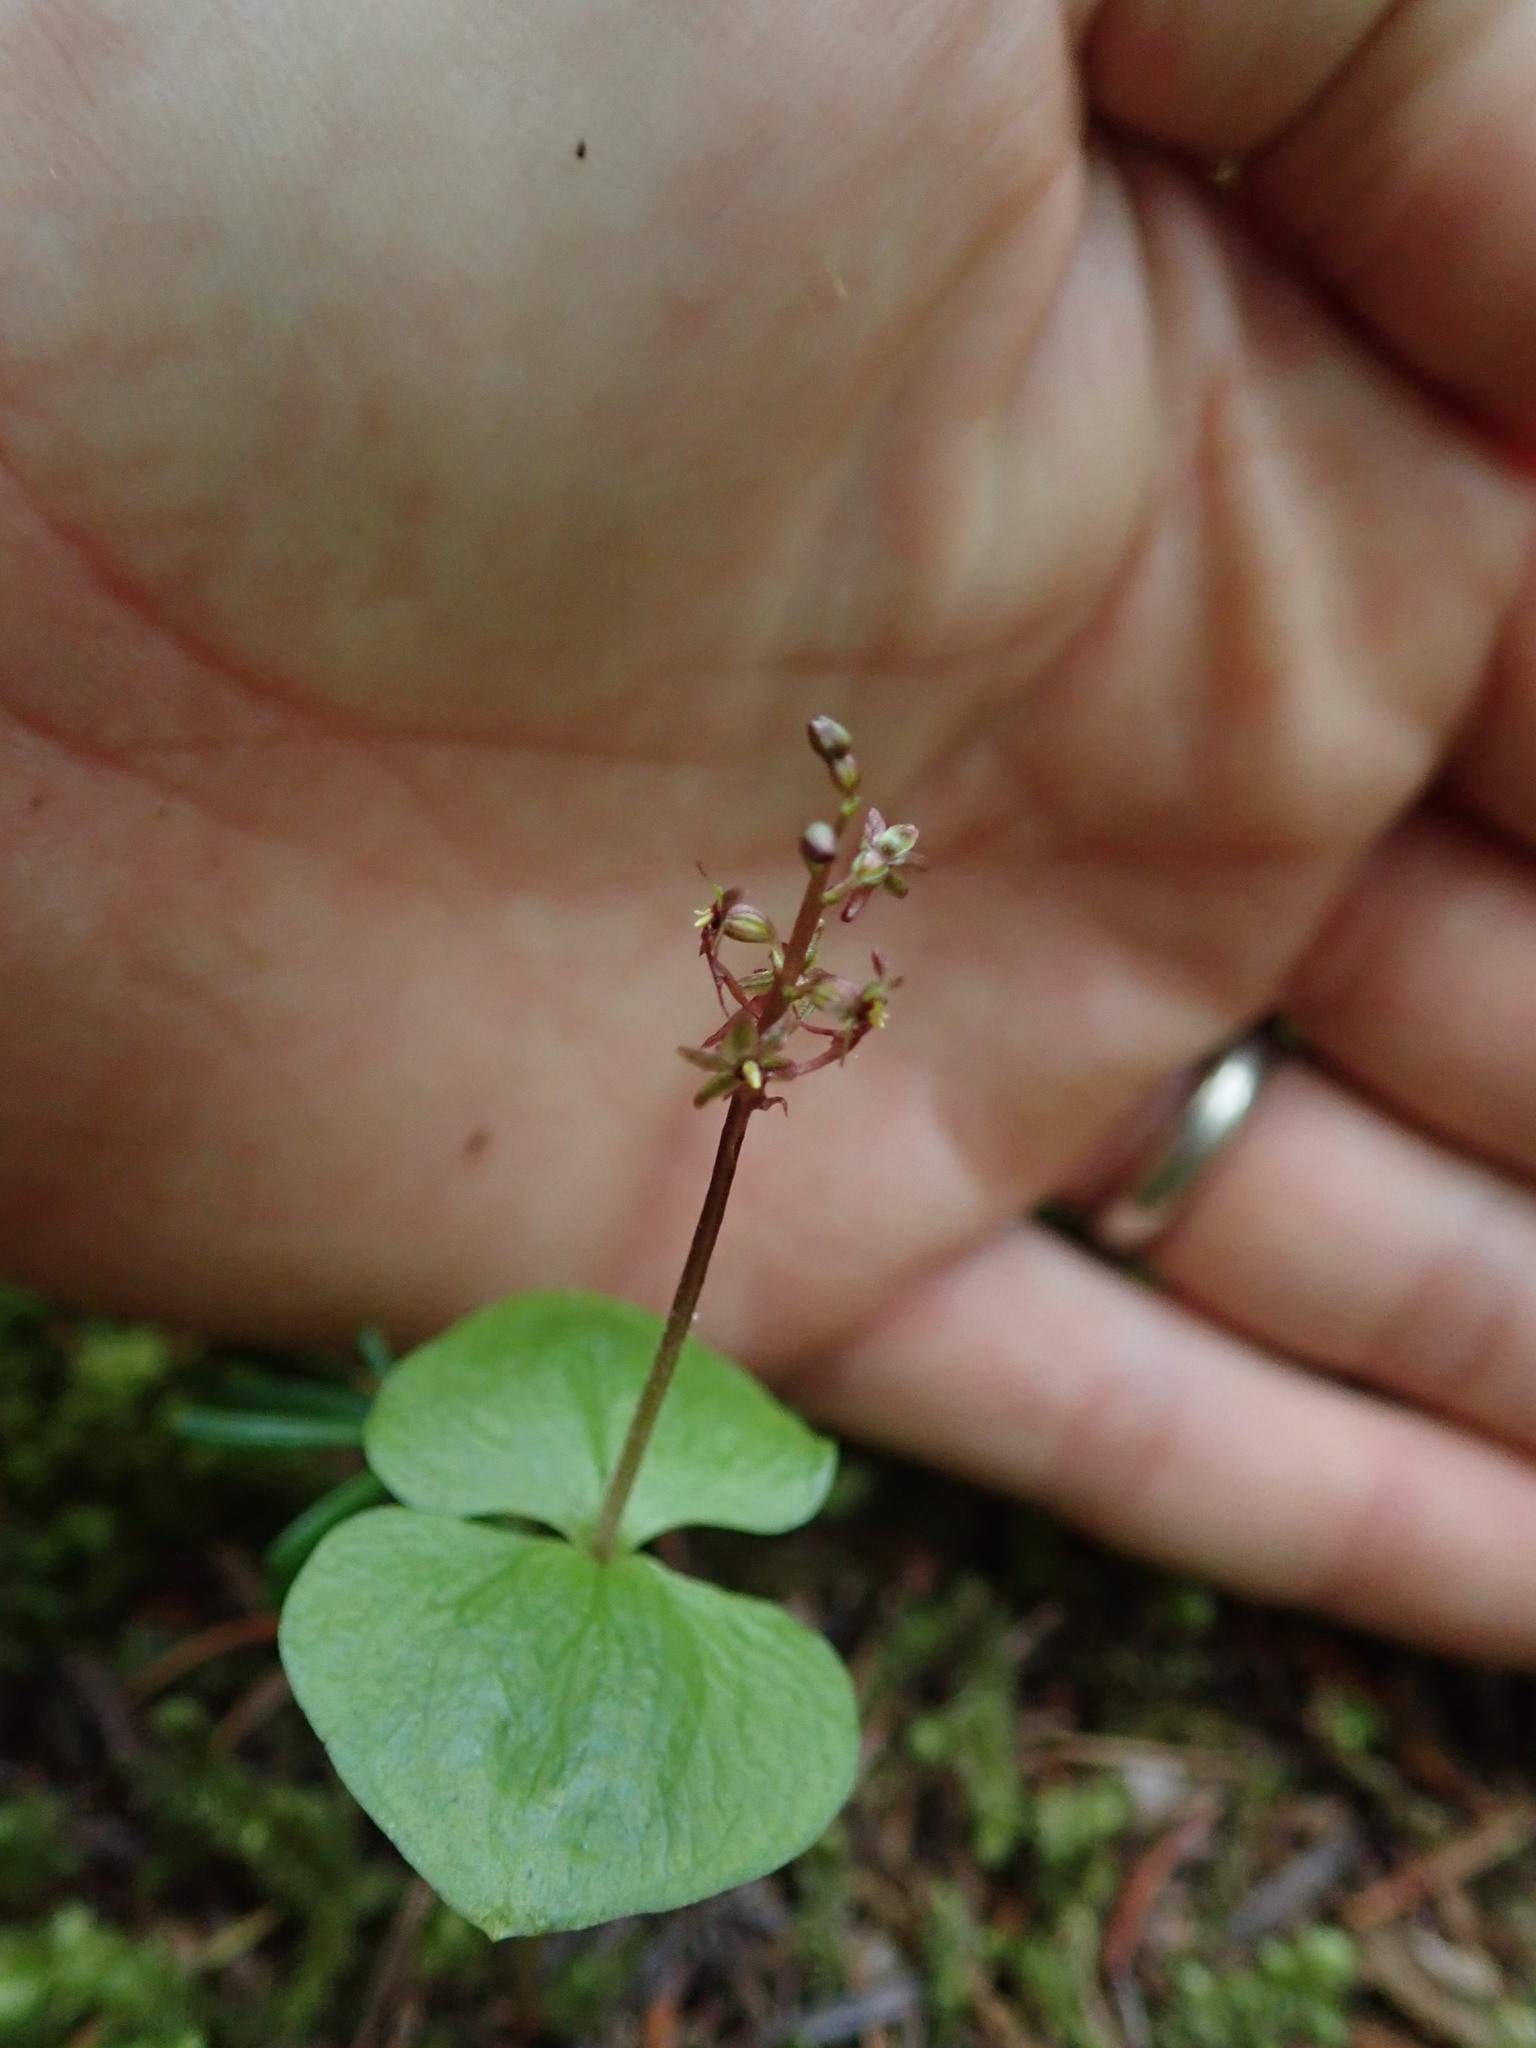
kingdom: Plantae
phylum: Tracheophyta
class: Liliopsida
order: Asparagales
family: Orchidaceae
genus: Neottia
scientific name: Neottia cordata
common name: Lesser twayblade
